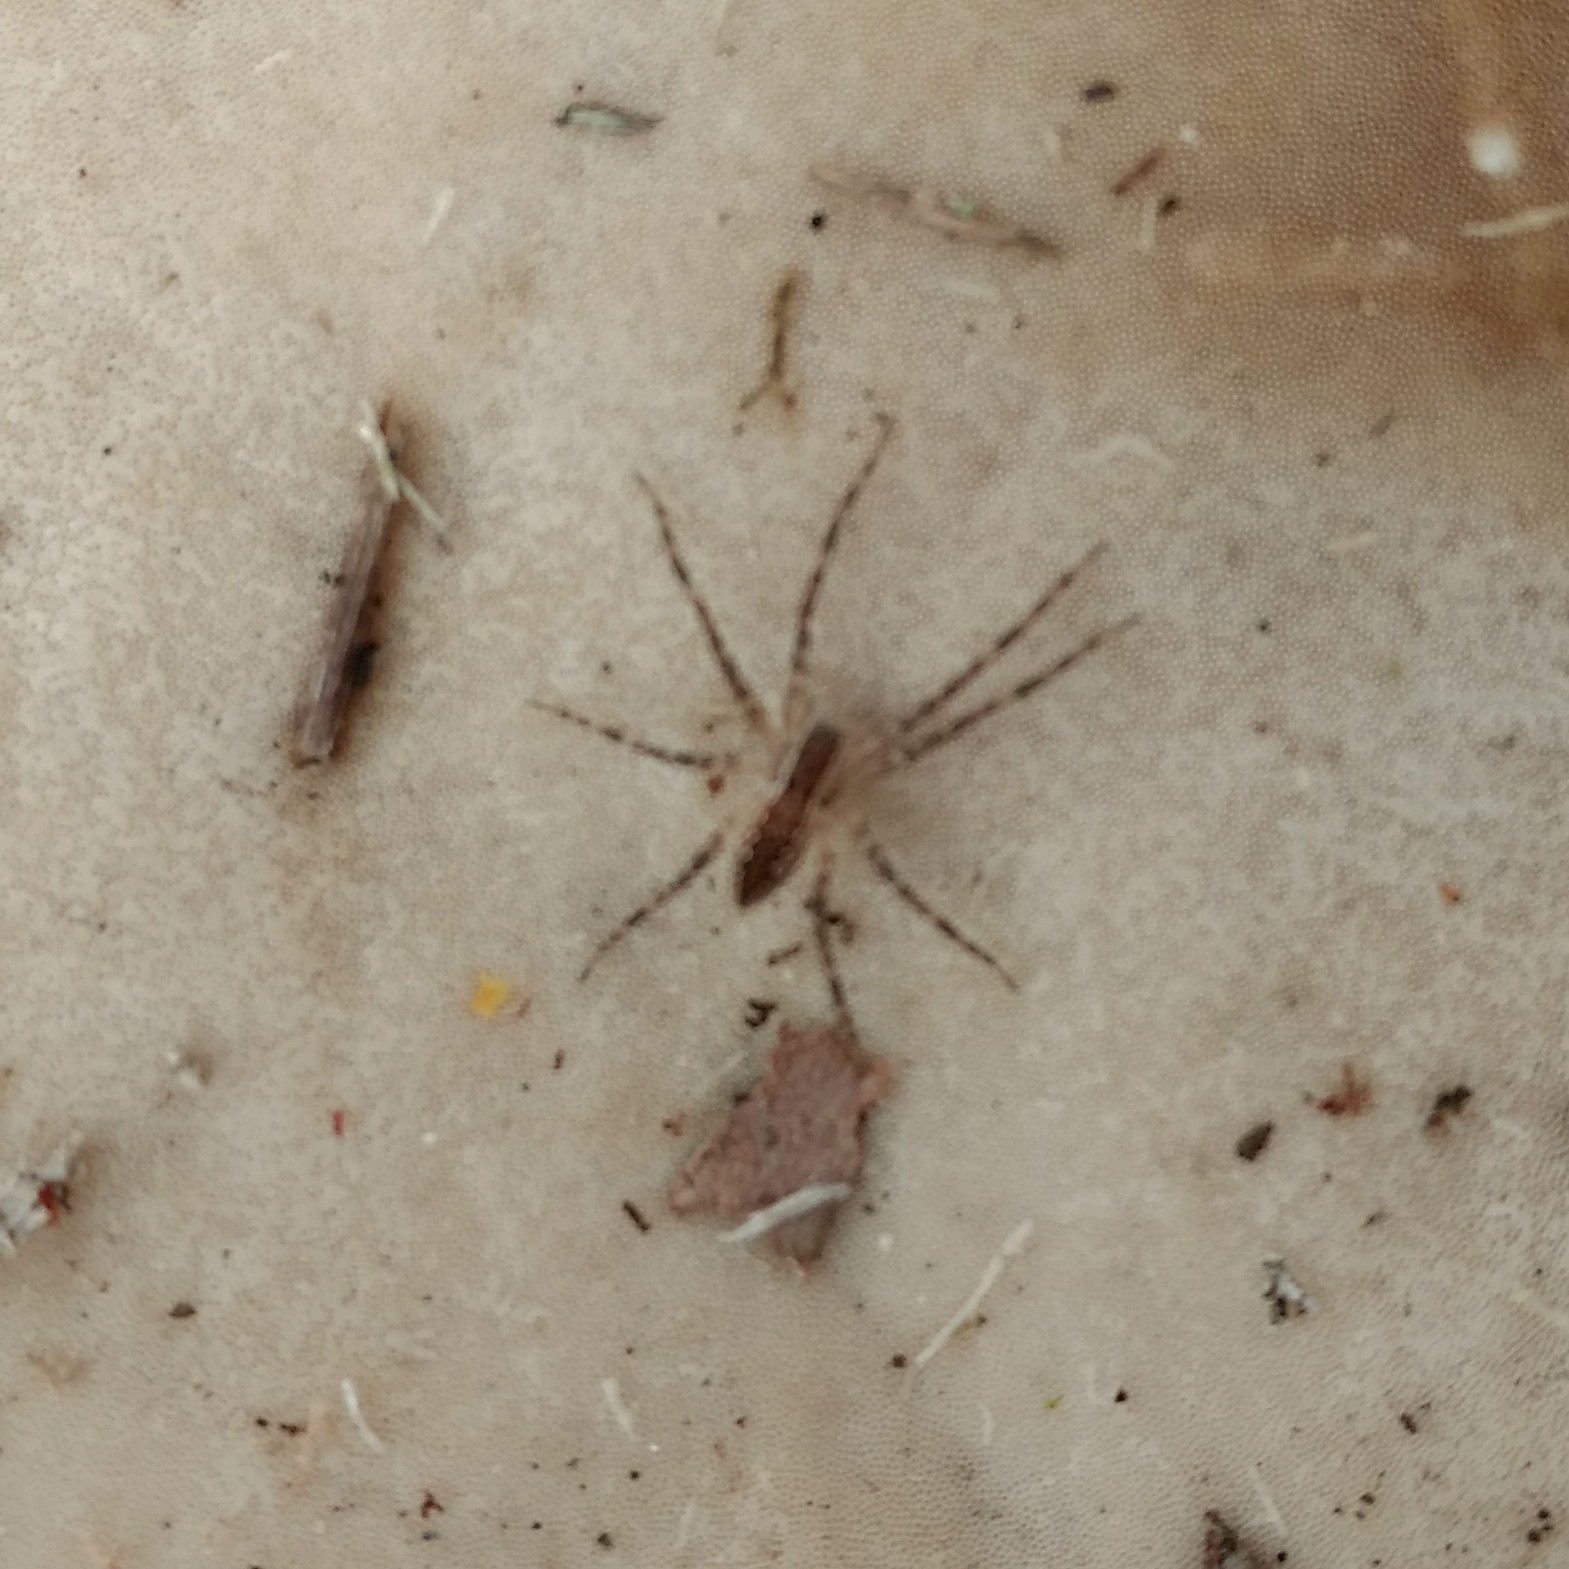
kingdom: Animalia
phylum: Arthropoda
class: Arachnida
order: Araneae
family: Pisauridae
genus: Pisaurina
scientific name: Pisaurina mira
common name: American nursery web spider
